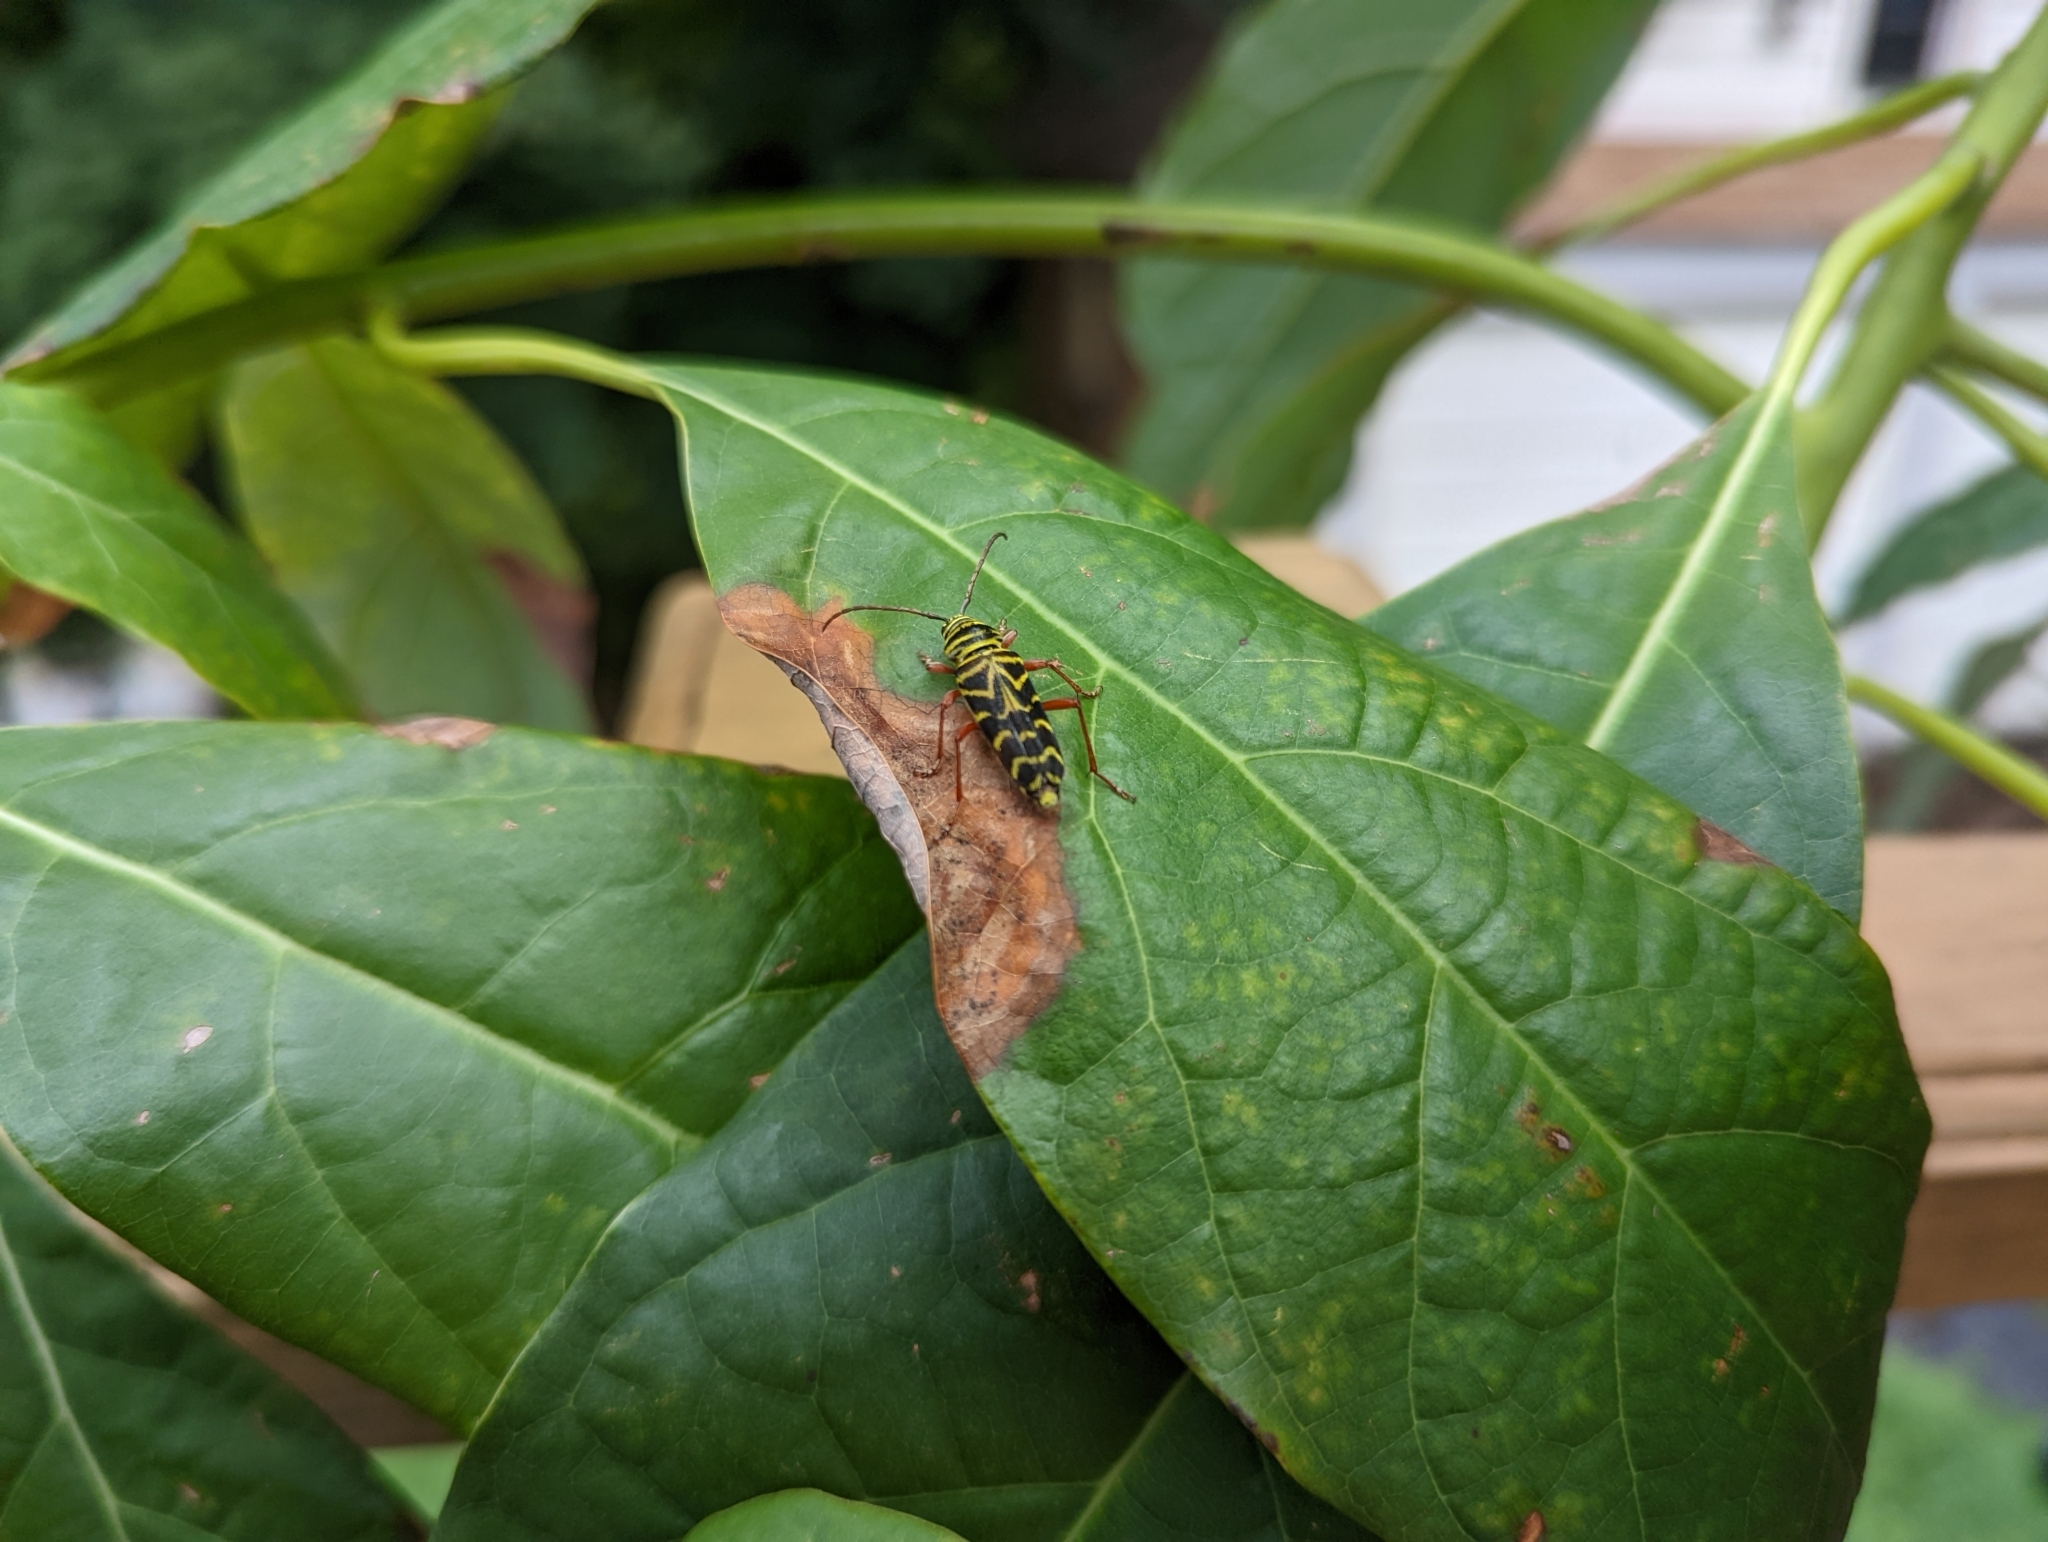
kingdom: Animalia
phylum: Arthropoda
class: Insecta
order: Coleoptera
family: Cerambycidae
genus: Megacyllene
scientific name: Megacyllene robiniae
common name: Locust borer
